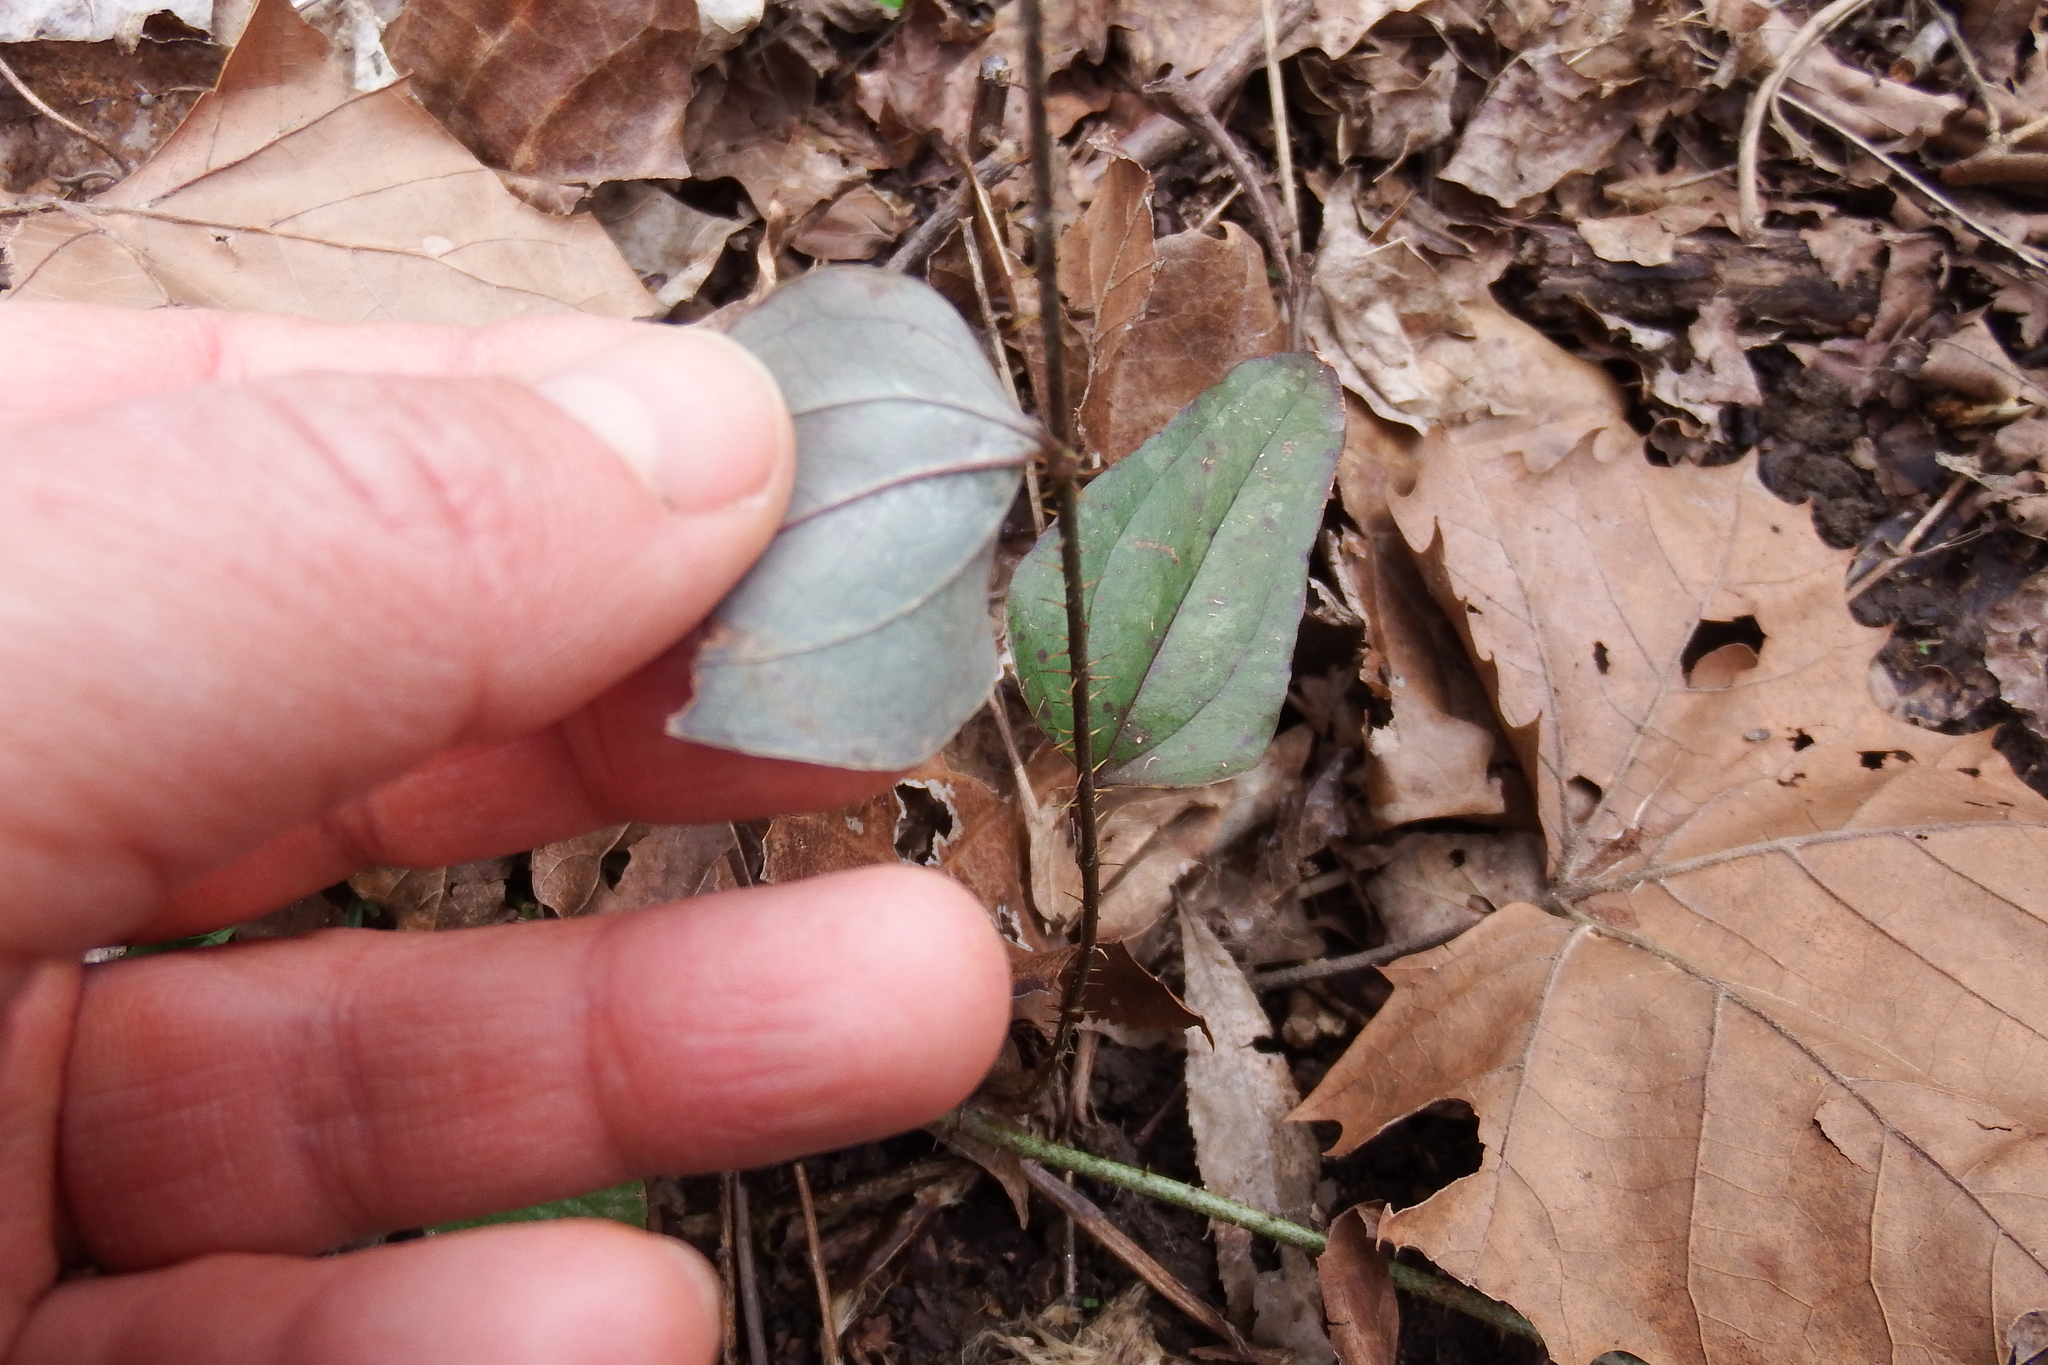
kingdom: Plantae
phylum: Tracheophyta
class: Liliopsida
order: Liliales
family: Smilacaceae
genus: Smilax
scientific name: Smilax glauca
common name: Cat greenbrier
